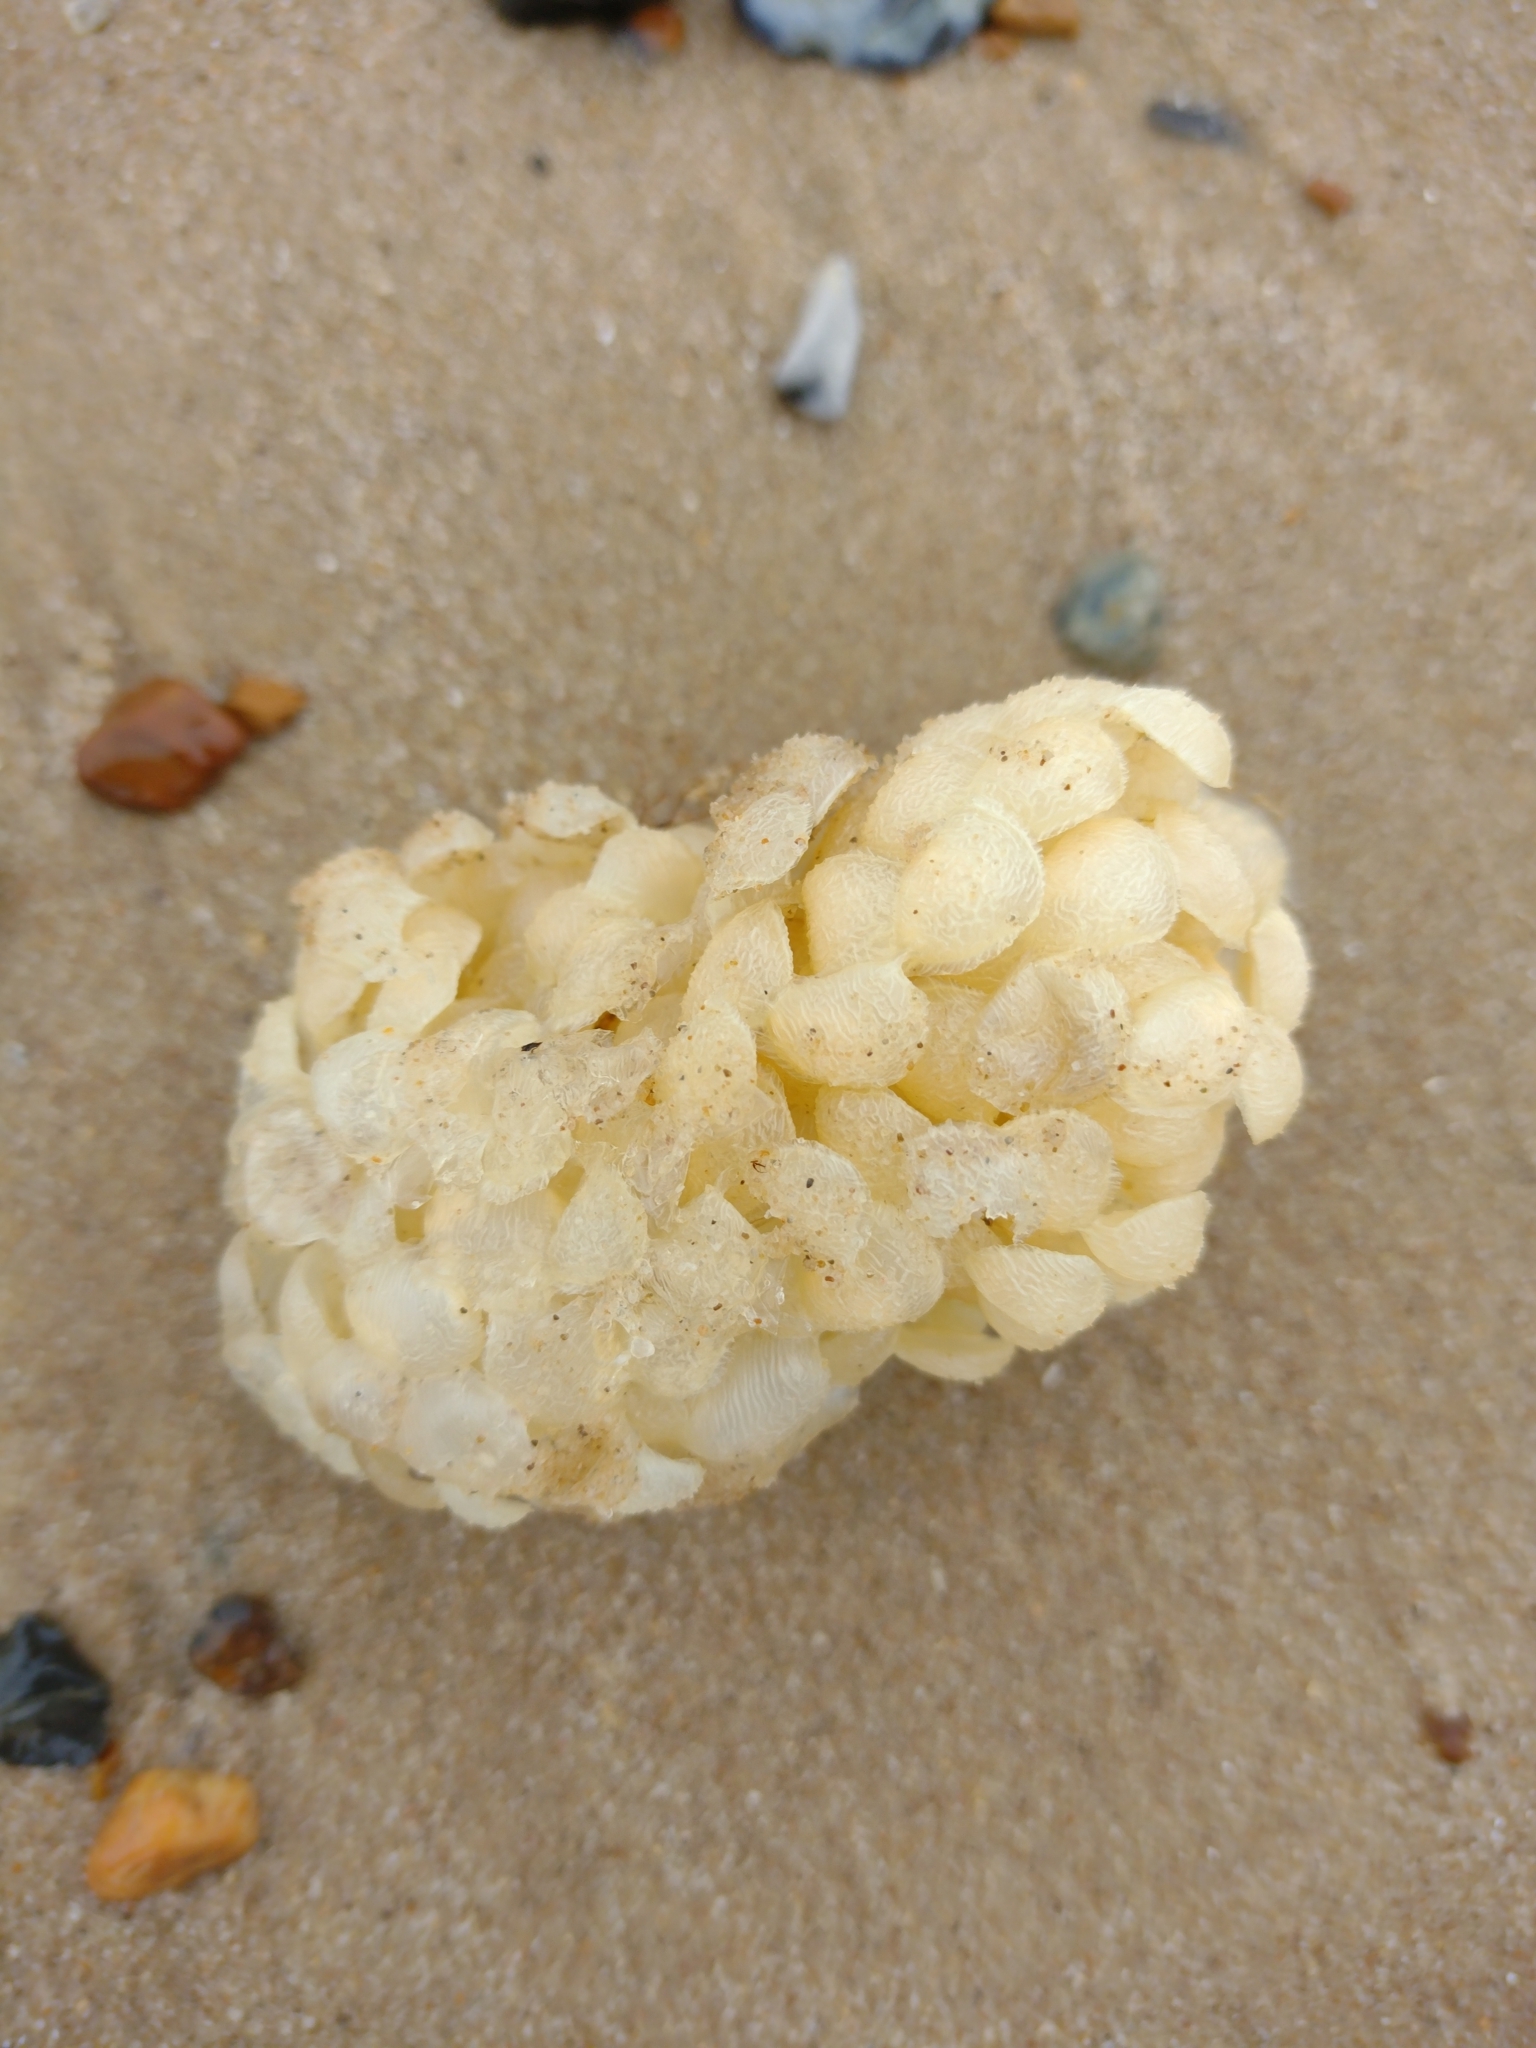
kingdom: Animalia
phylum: Mollusca
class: Gastropoda
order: Neogastropoda
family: Buccinidae
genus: Buccinum
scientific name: Buccinum undatum
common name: Common whelk
